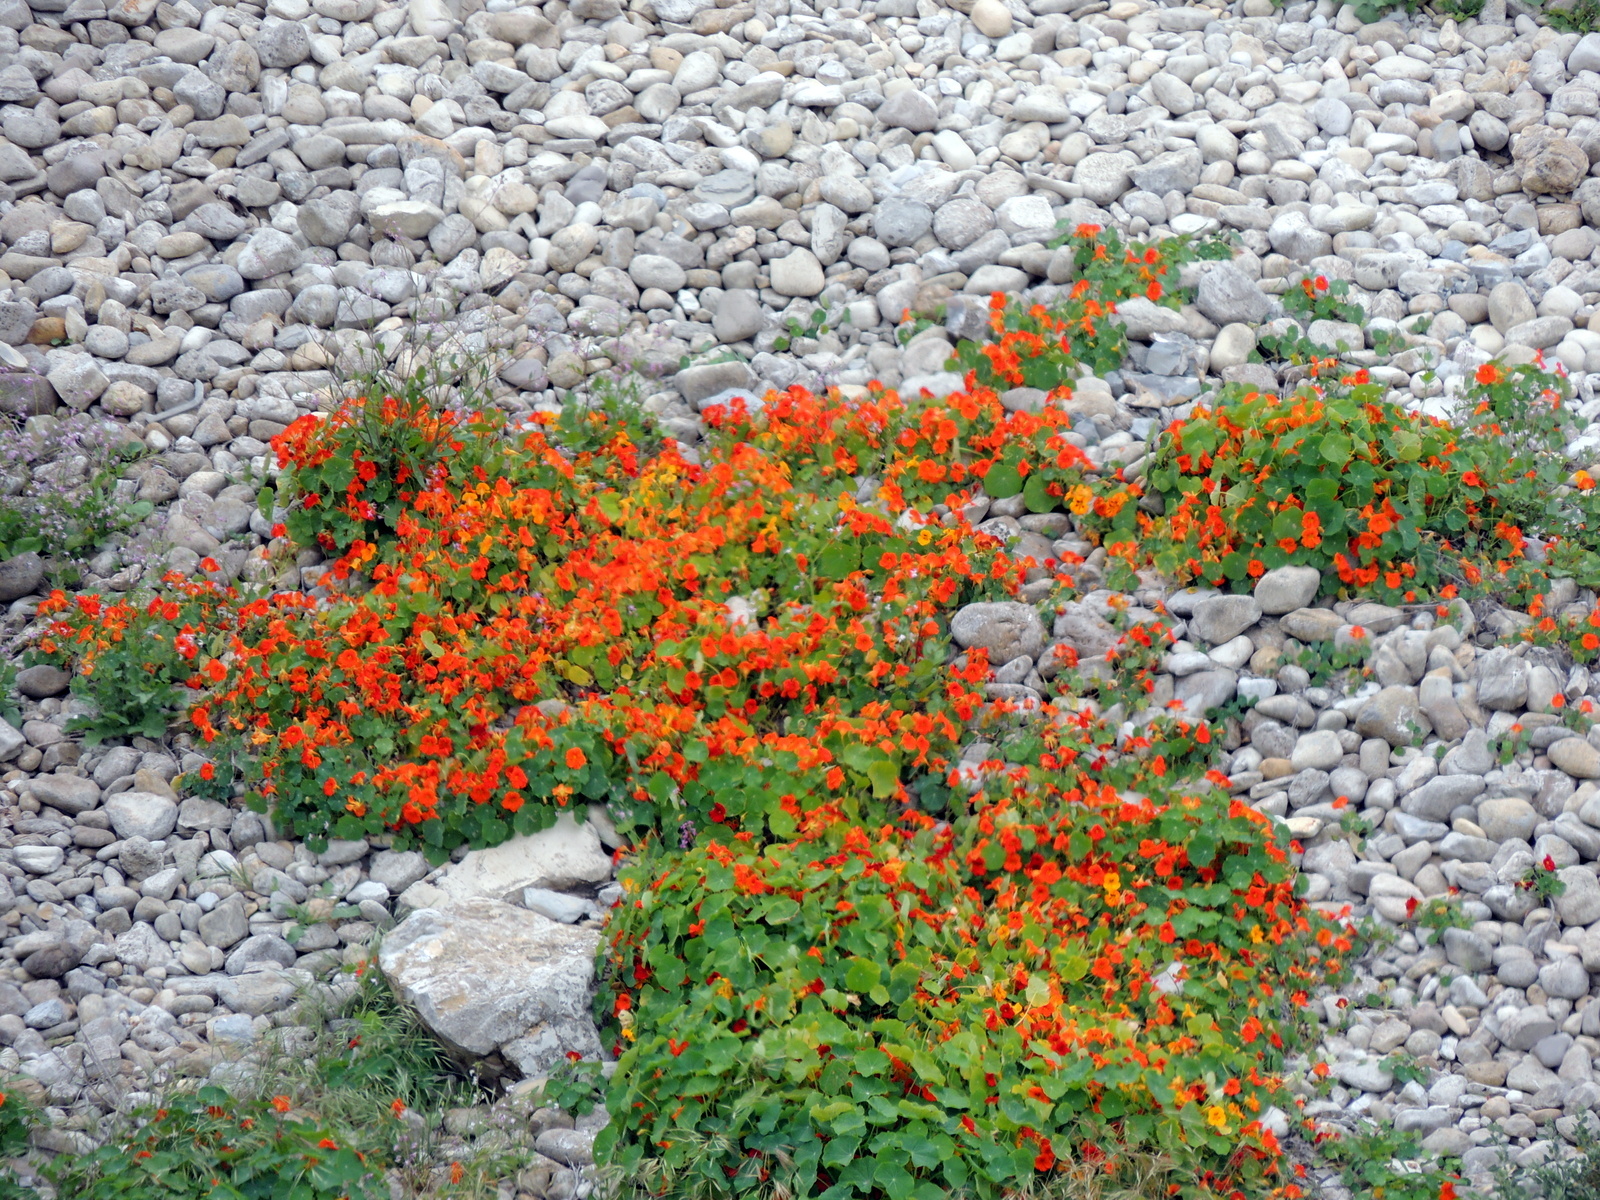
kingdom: Plantae
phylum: Tracheophyta
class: Magnoliopsida
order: Brassicales
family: Tropaeolaceae
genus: Tropaeolum
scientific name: Tropaeolum majus
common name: Nasturtium
